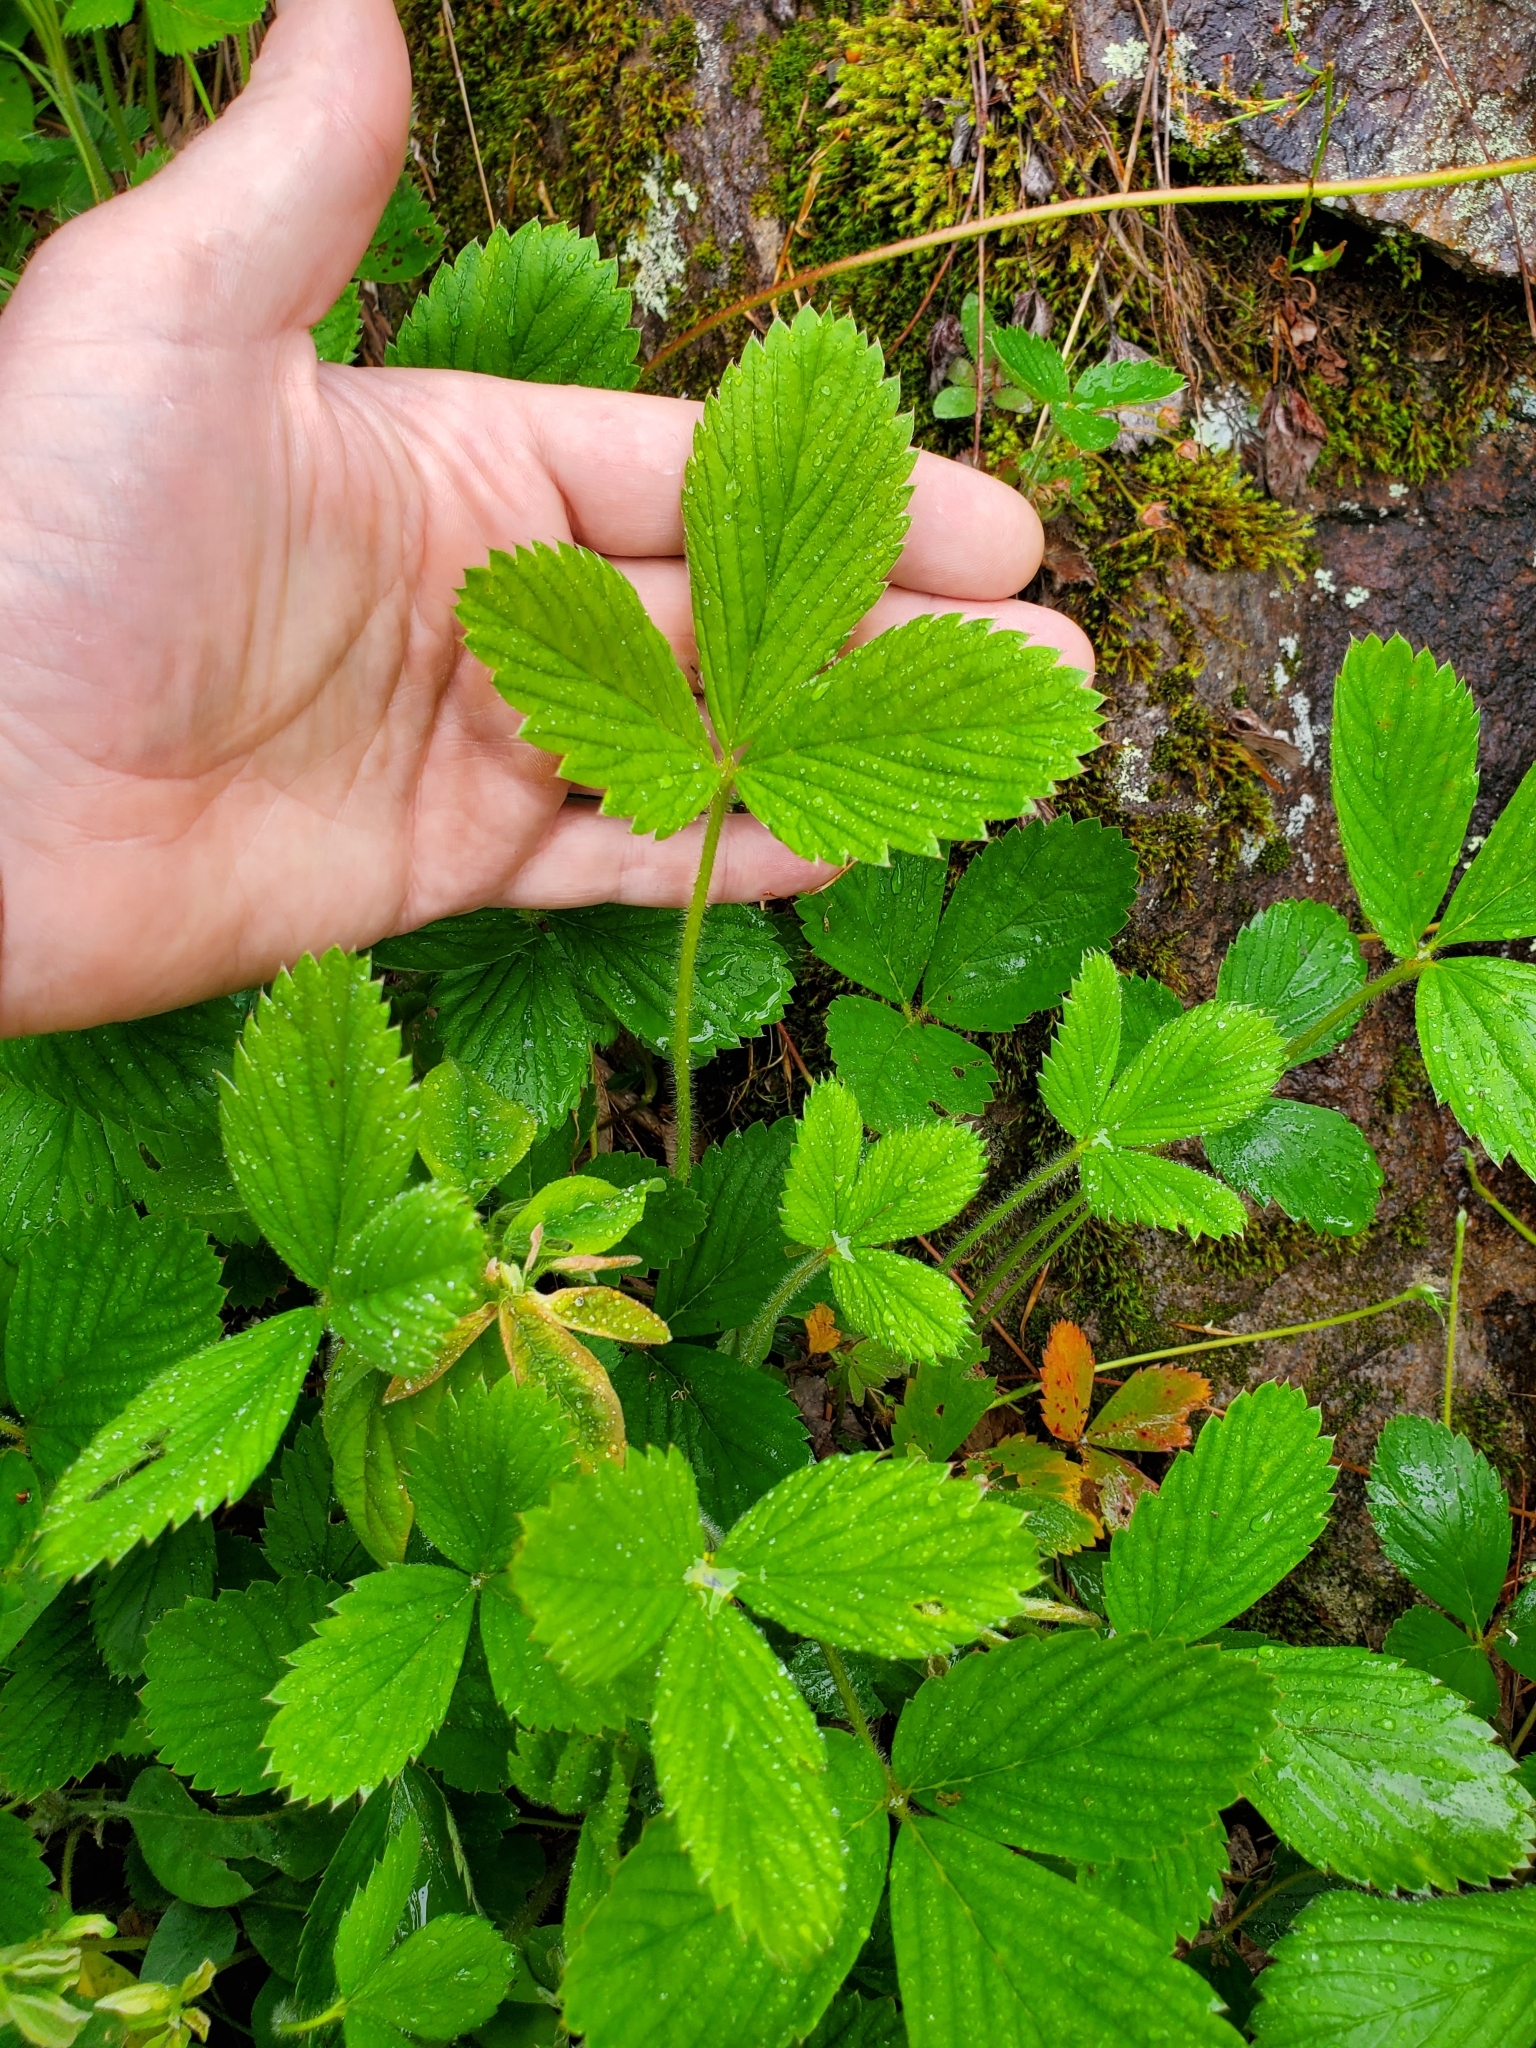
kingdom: Plantae
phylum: Tracheophyta
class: Magnoliopsida
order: Rosales
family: Rosaceae
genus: Fragaria
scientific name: Fragaria virginiana
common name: Thickleaved wild strawberry
